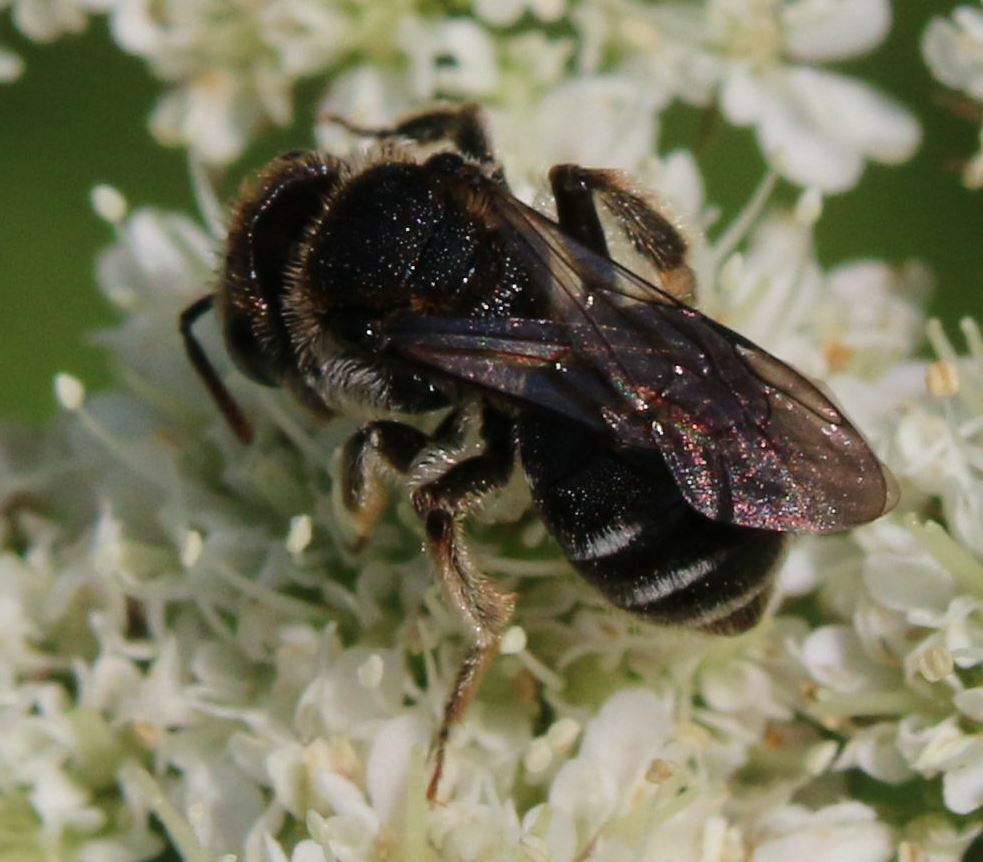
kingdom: Animalia
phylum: Arthropoda
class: Insecta
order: Hymenoptera
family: Andrenidae
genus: Andrena
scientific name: Andrena colletiformis
